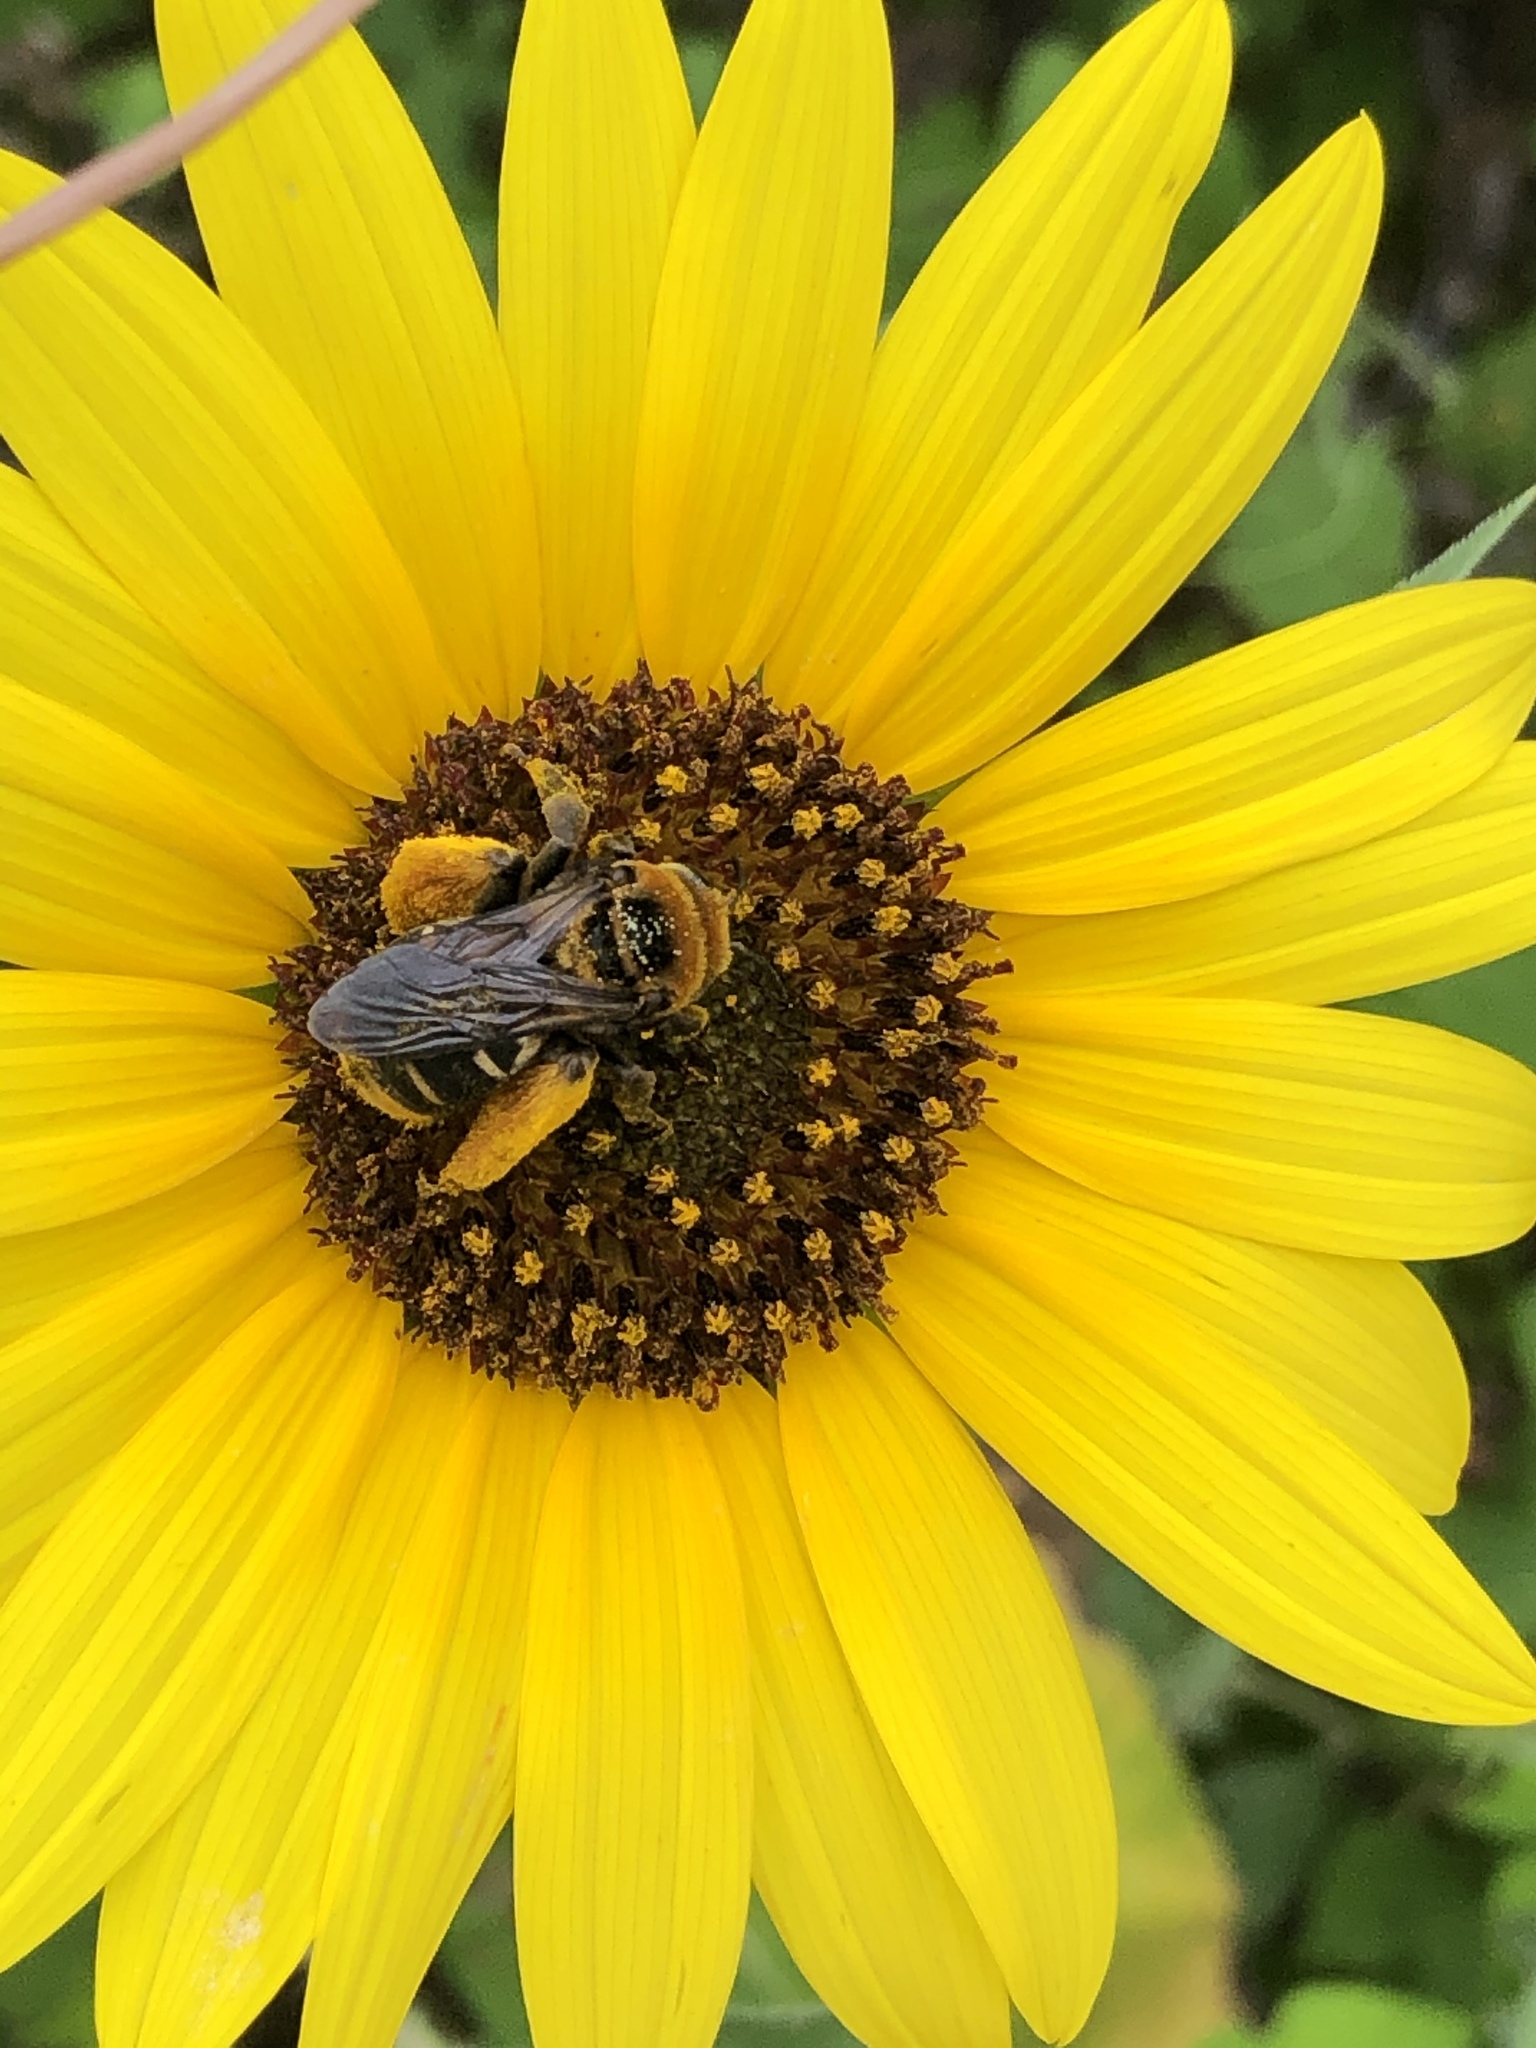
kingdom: Animalia
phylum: Arthropoda
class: Insecta
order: Hymenoptera
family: Apidae
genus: Svastra
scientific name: Svastra obliqua
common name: Oblique longhorn
